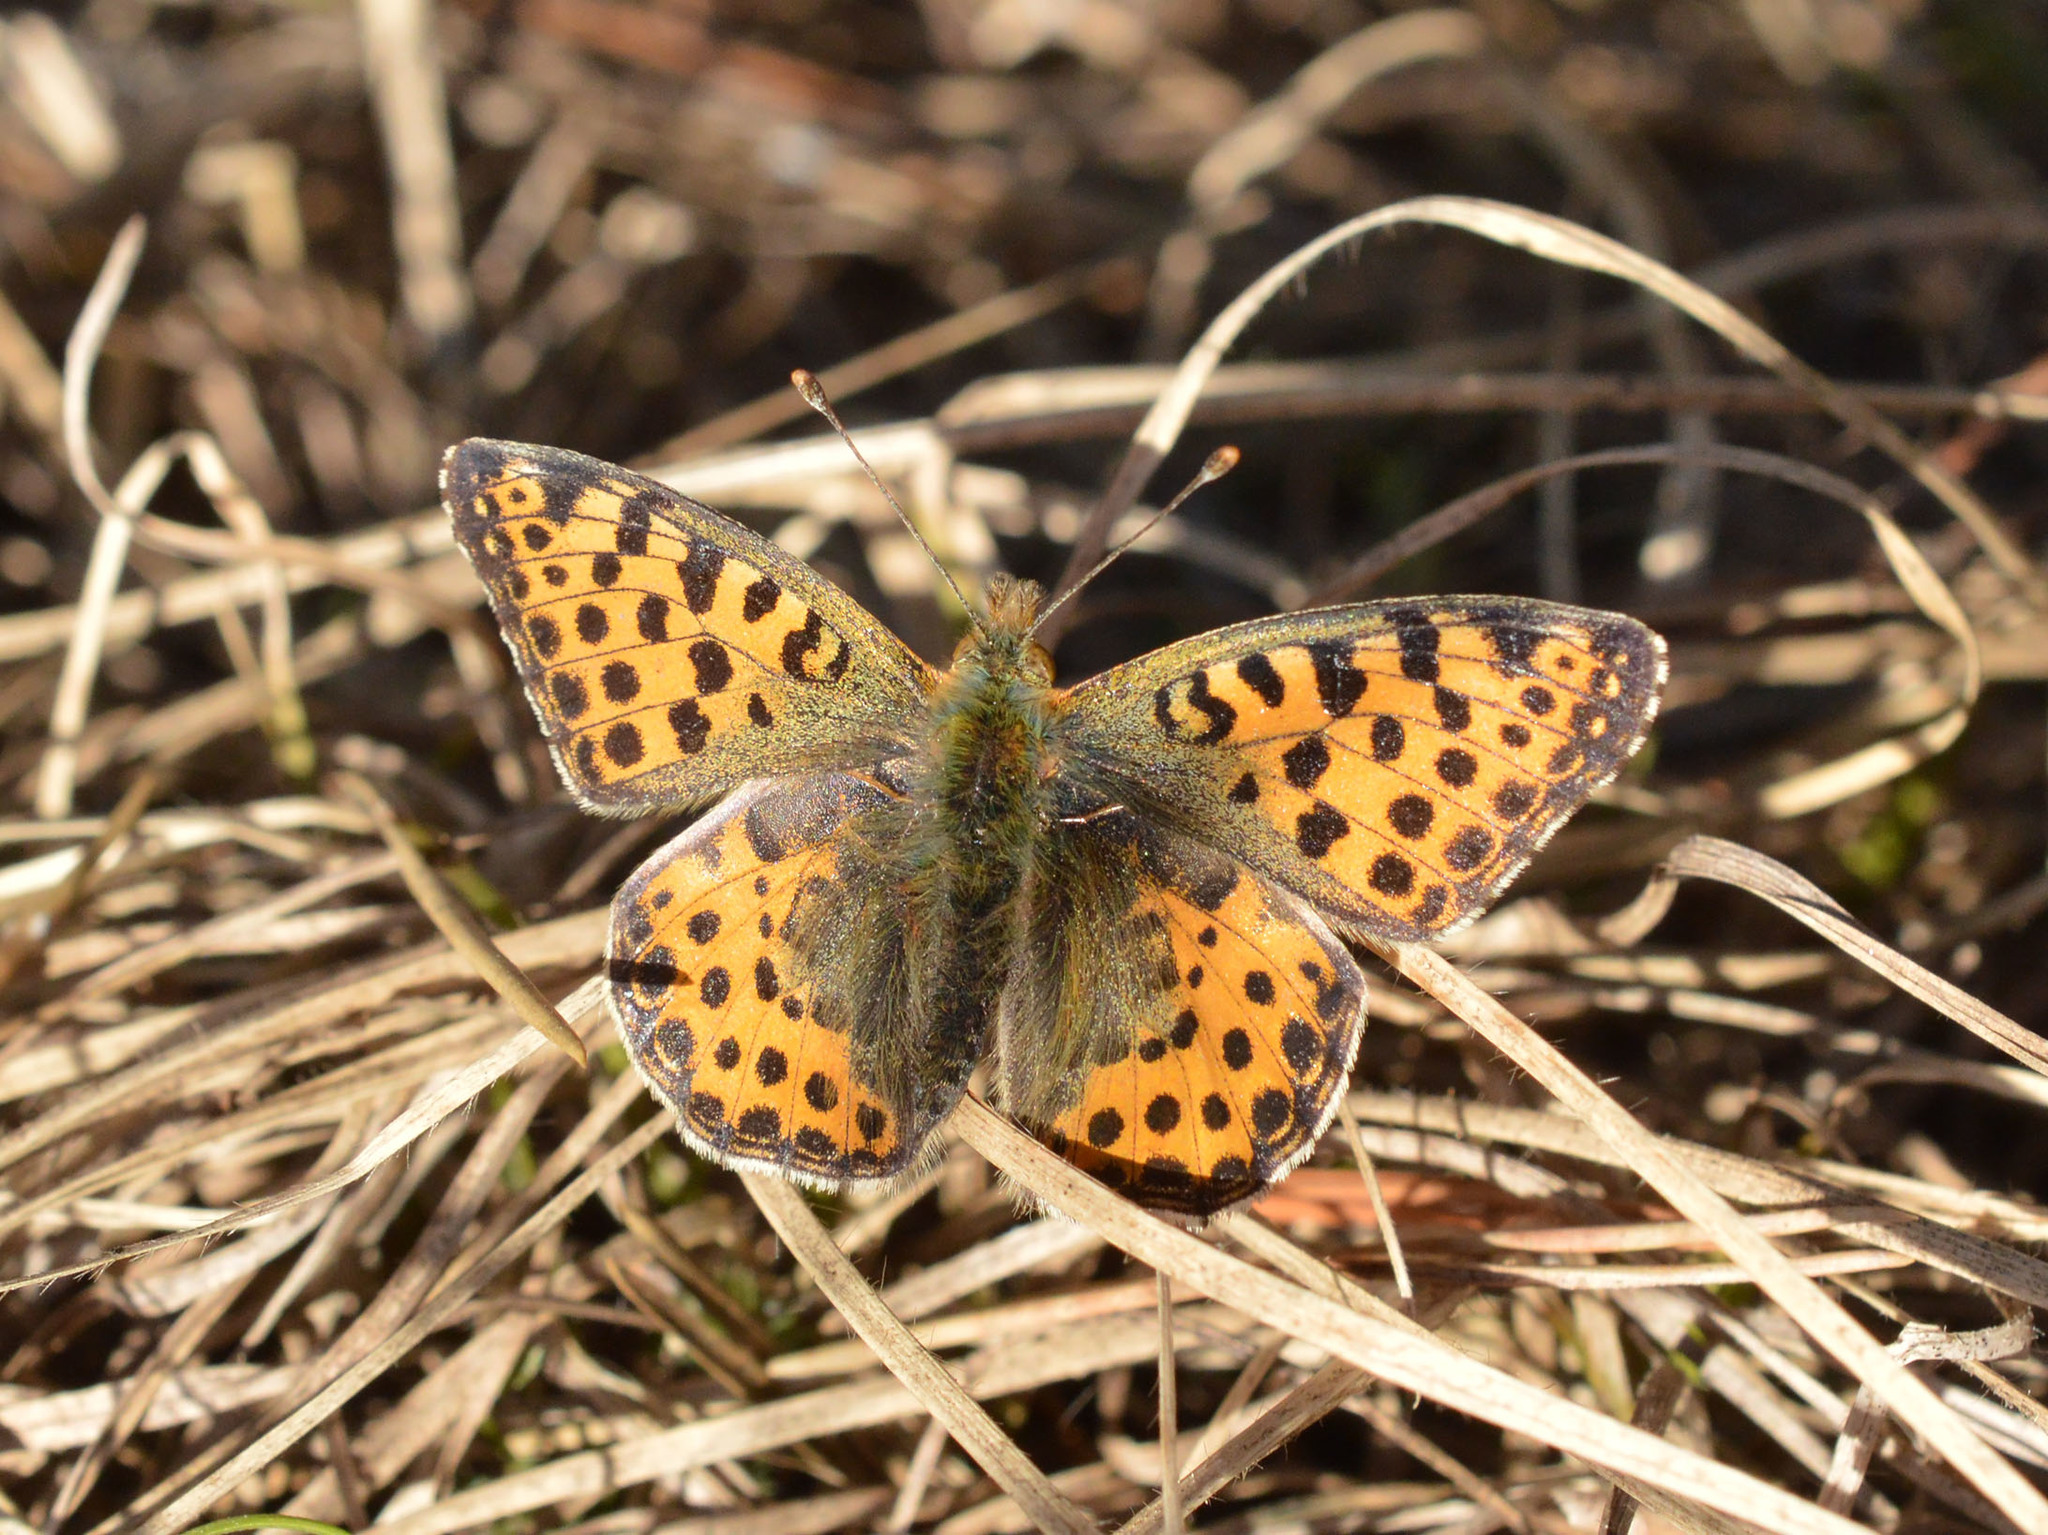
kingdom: Animalia
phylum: Arthropoda
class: Insecta
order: Lepidoptera
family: Nymphalidae
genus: Issoria
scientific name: Issoria lathonia
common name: Queen of spain fritillary
